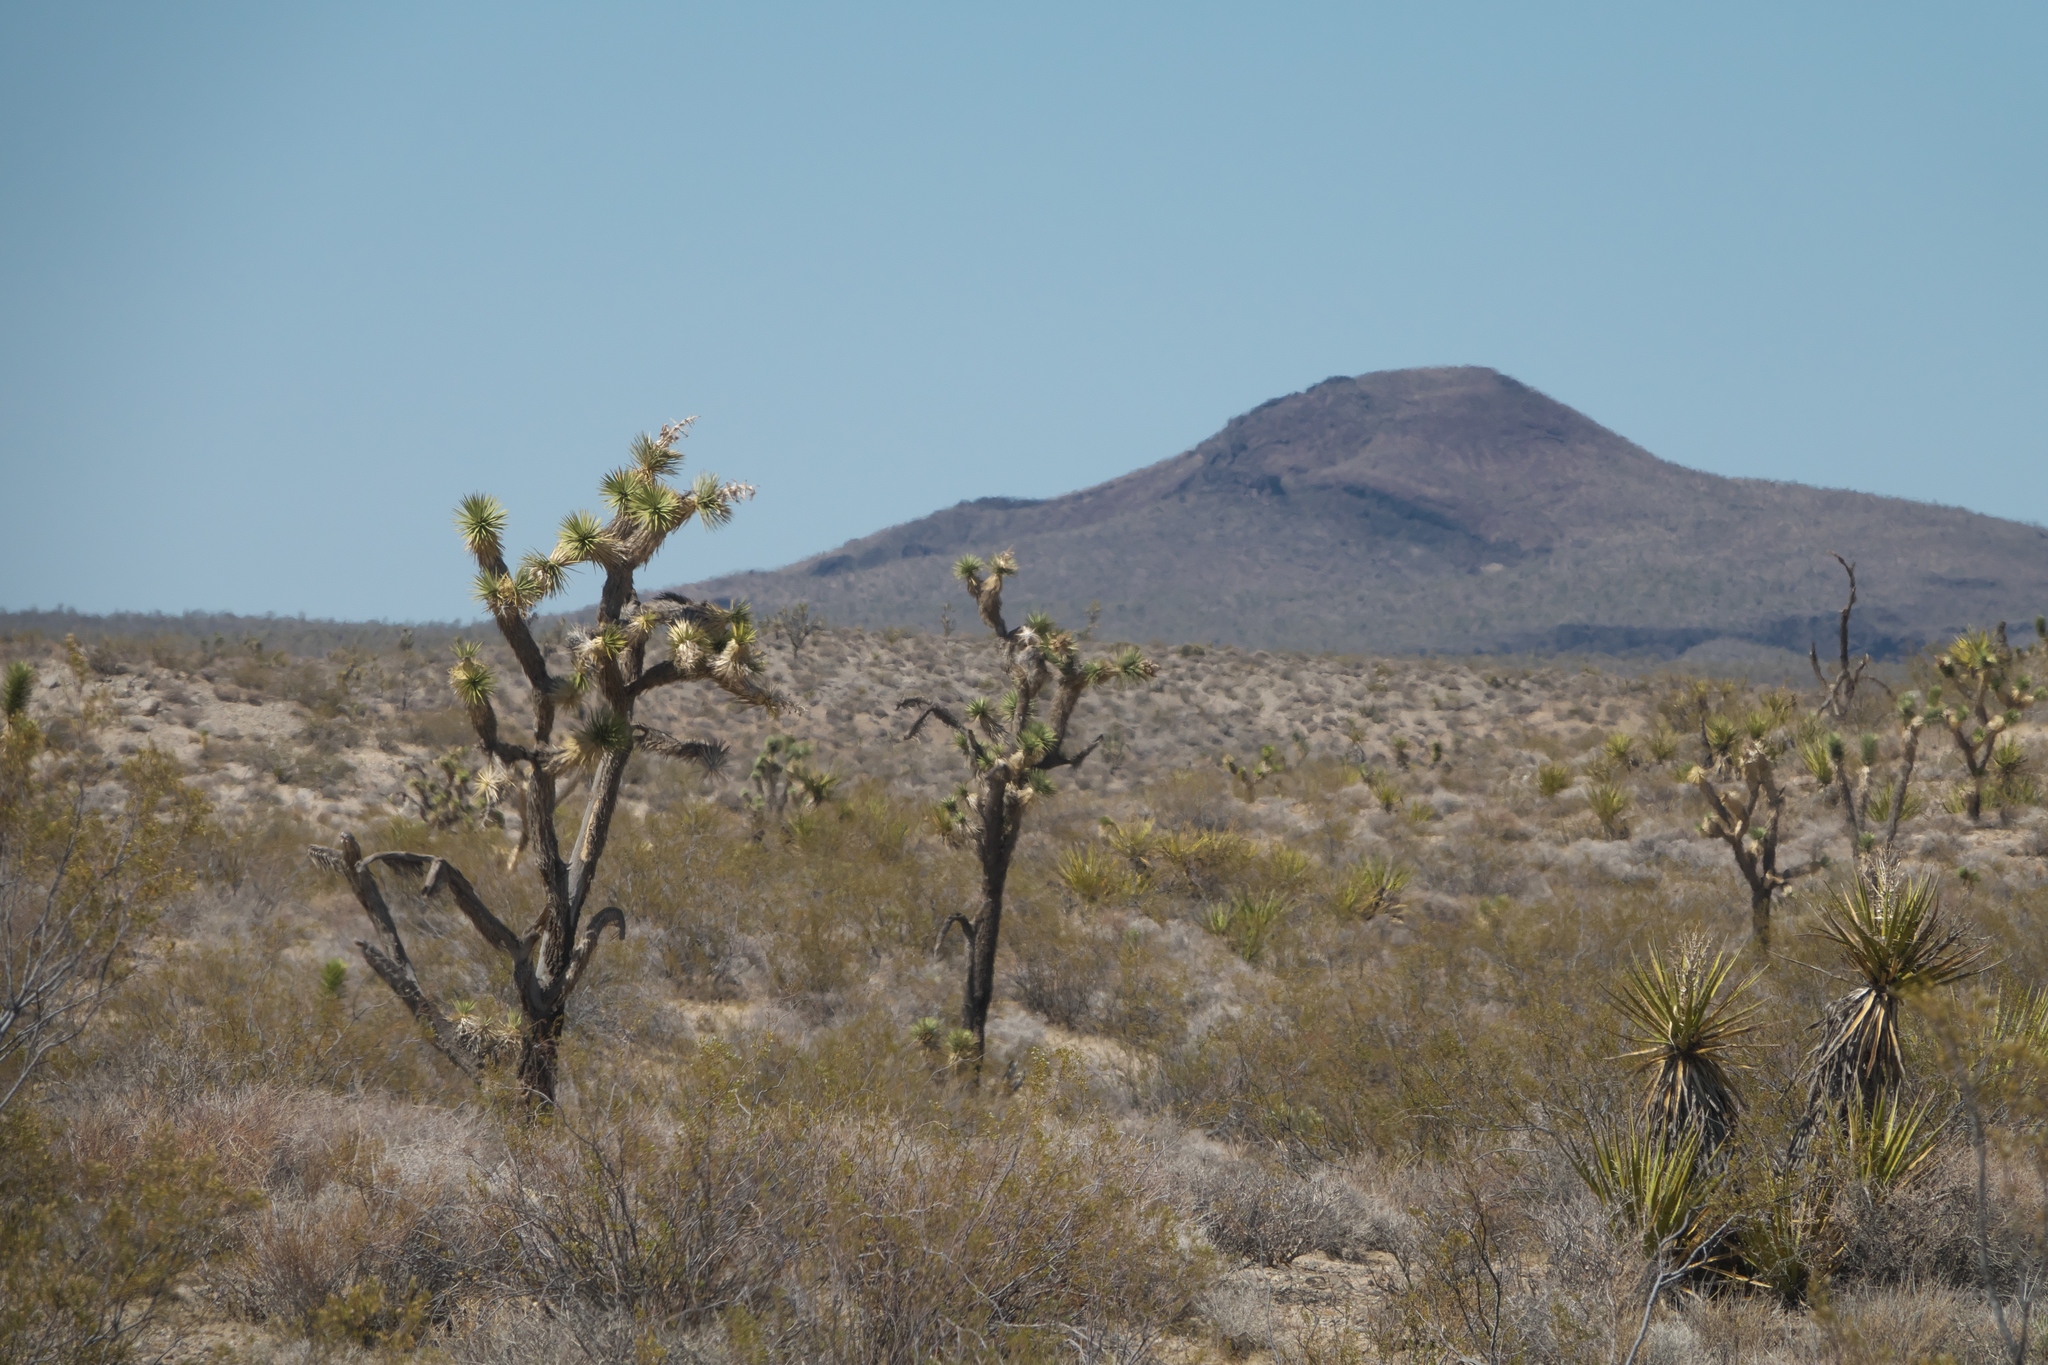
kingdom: Plantae
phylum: Tracheophyta
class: Liliopsida
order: Asparagales
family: Asparagaceae
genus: Yucca
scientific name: Yucca brevifolia
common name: Joshua tree
